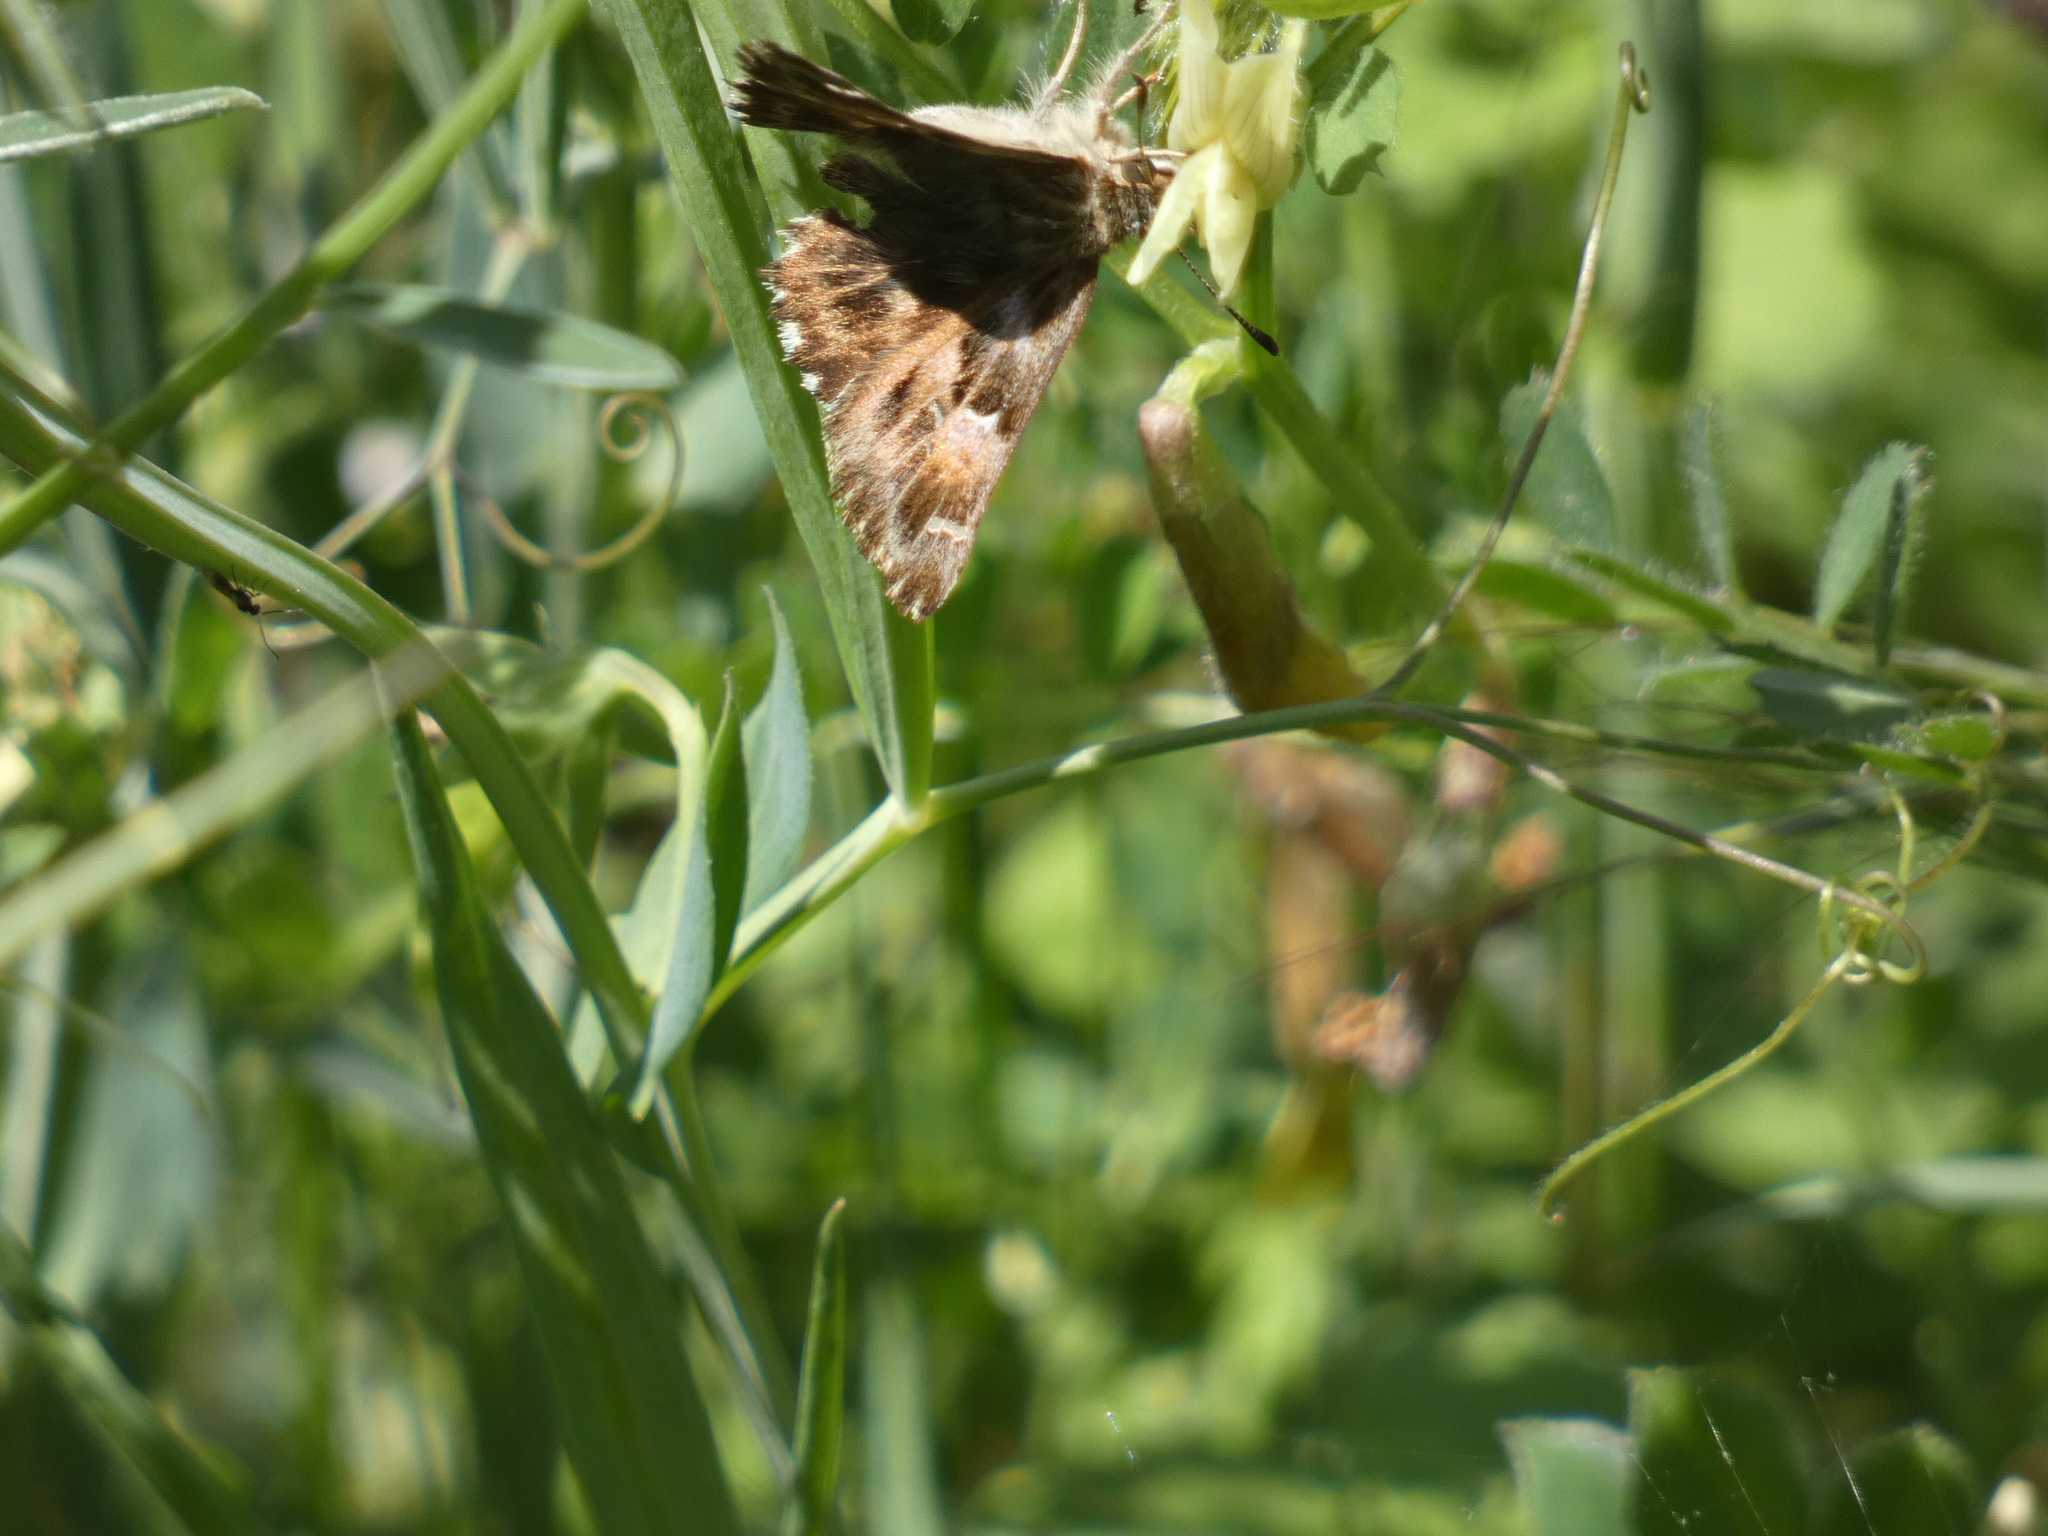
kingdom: Animalia
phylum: Arthropoda
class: Insecta
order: Lepidoptera
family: Hesperiidae
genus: Carcharodus
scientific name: Carcharodus alceae
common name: Mallow skipper
